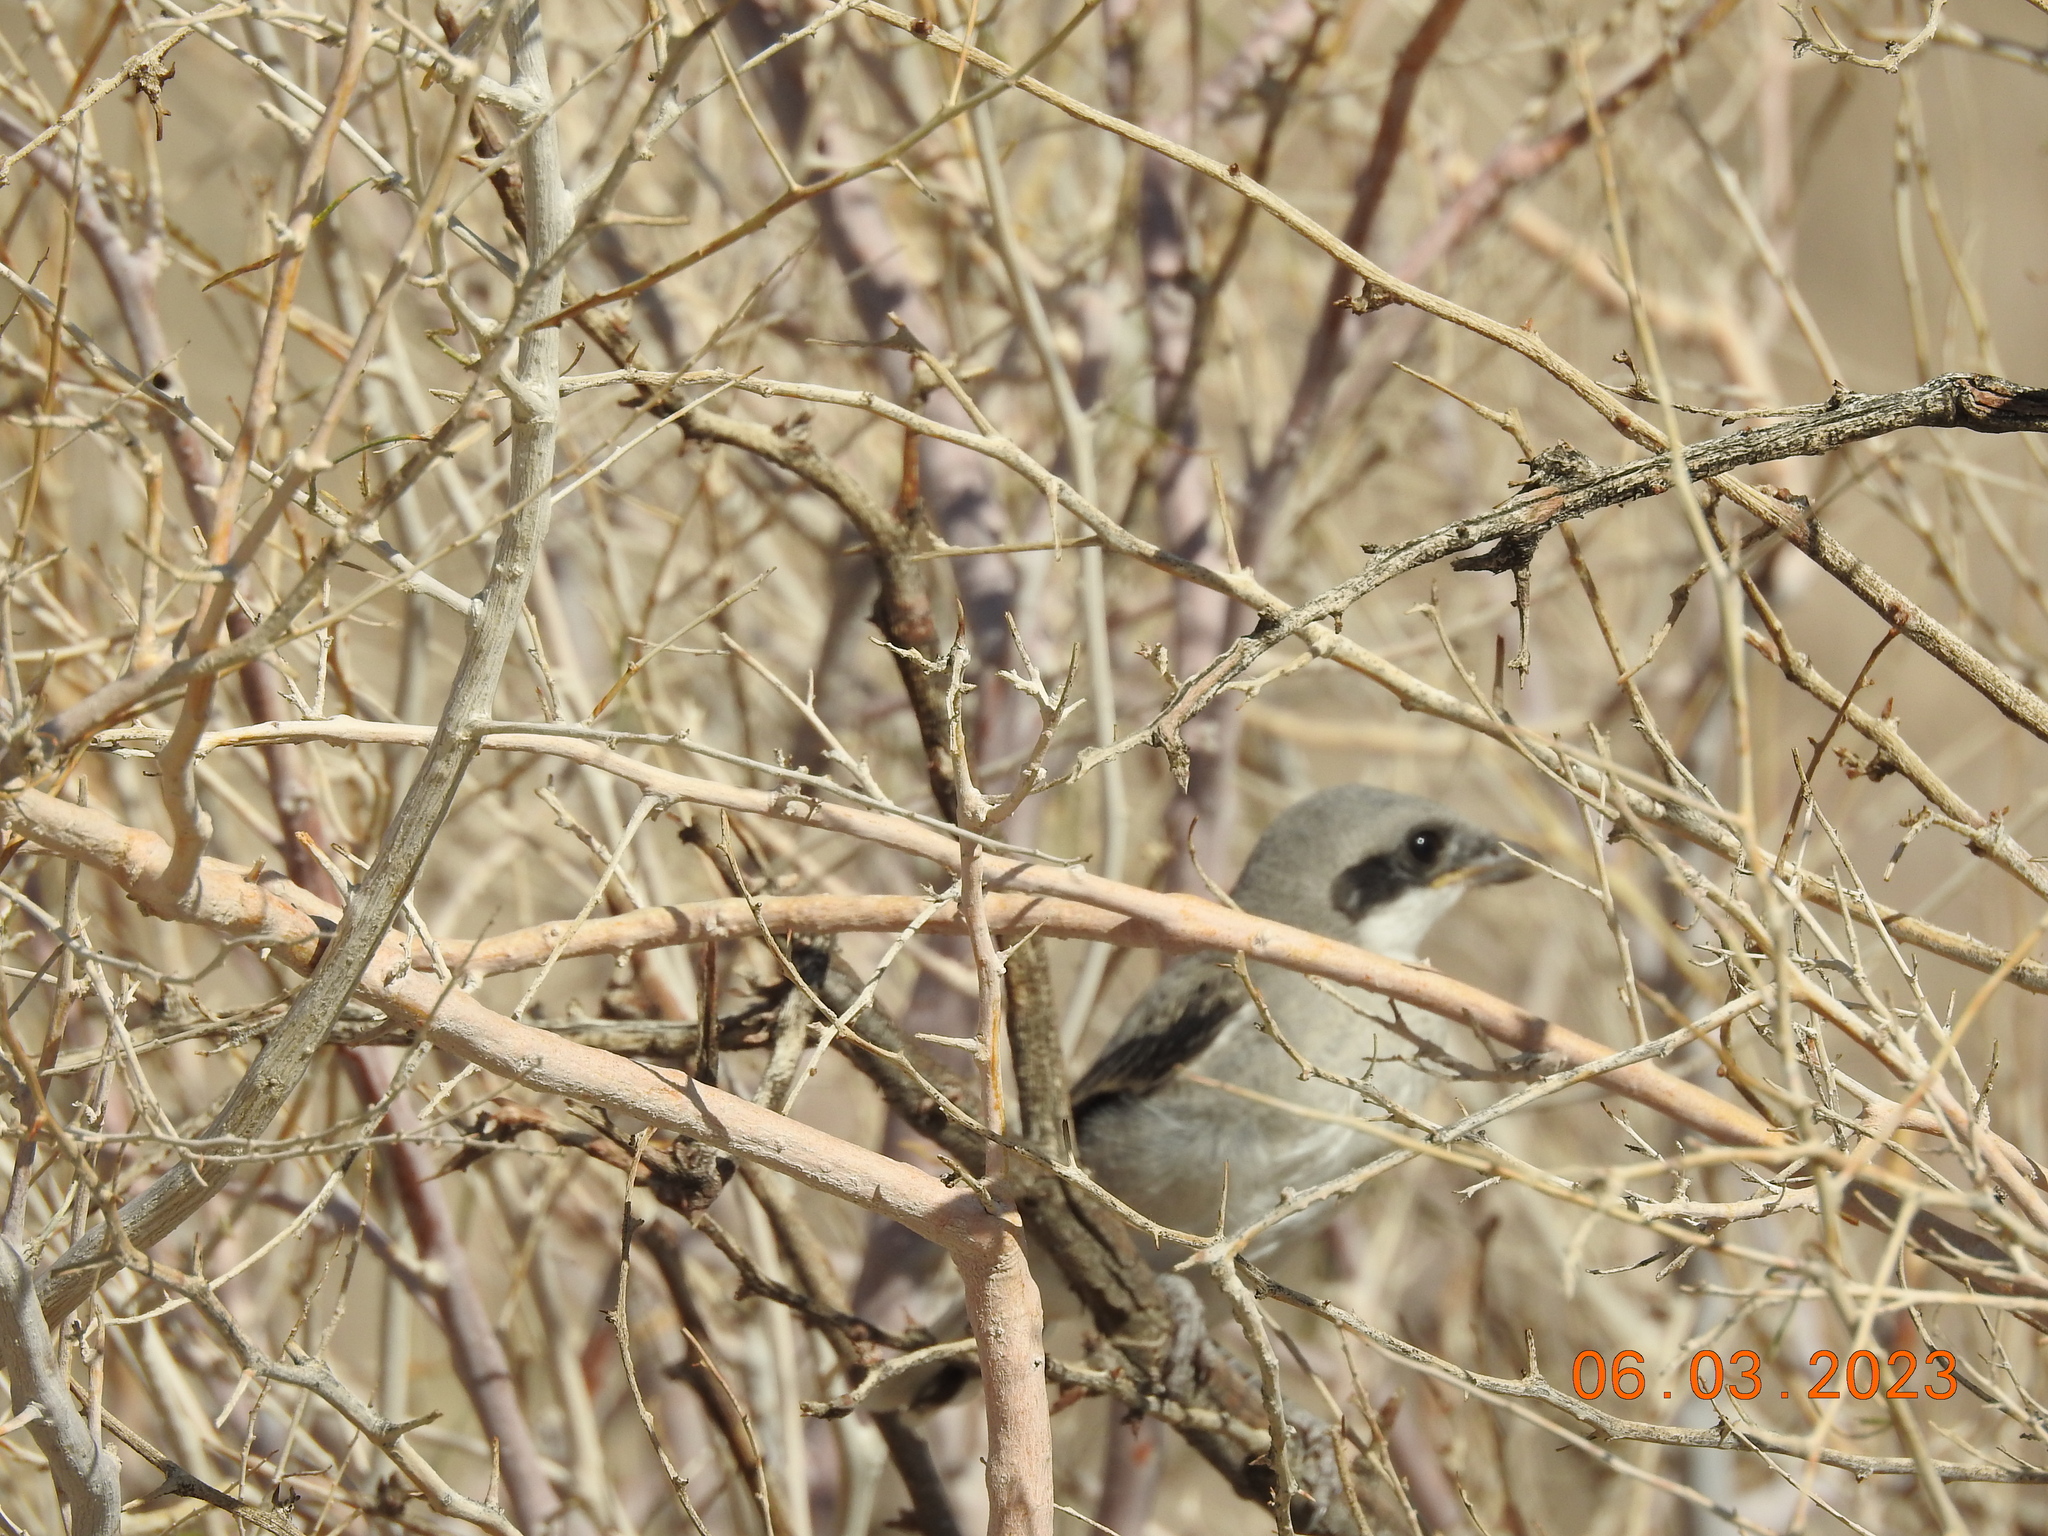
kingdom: Animalia
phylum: Chordata
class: Aves
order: Passeriformes
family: Laniidae
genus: Lanius
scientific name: Lanius ludovicianus
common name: Loggerhead shrike
